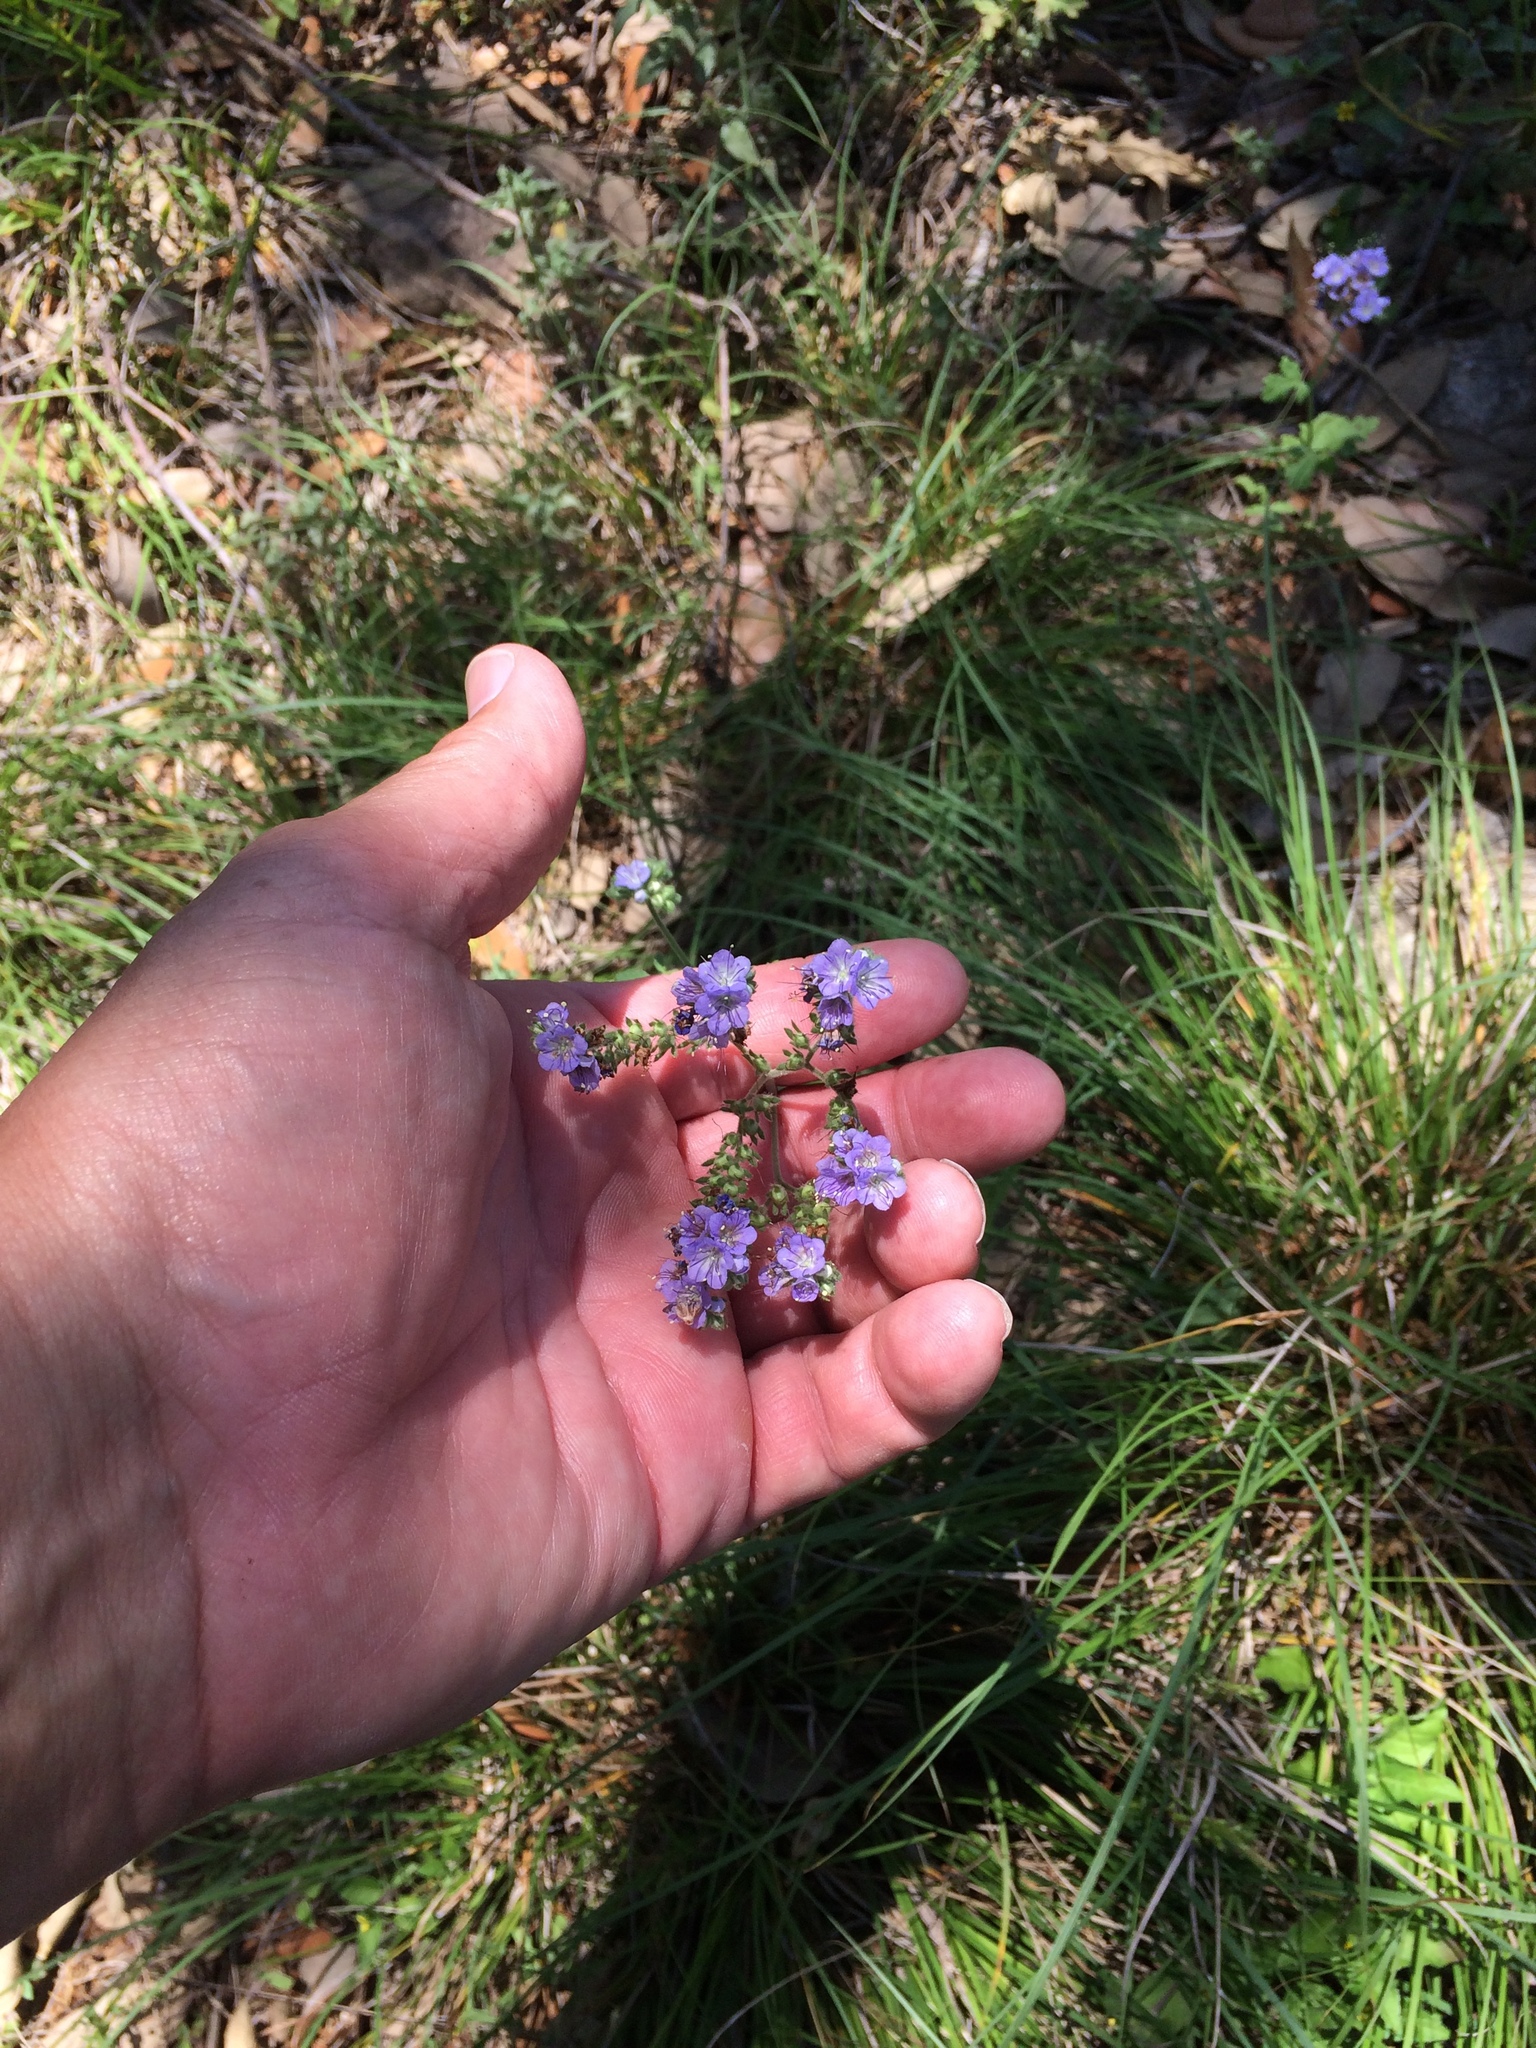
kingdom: Plantae
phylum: Tracheophyta
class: Magnoliopsida
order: Boraginales
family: Hydrophyllaceae
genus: Phacelia
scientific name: Phacelia congesta
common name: Blue curls
